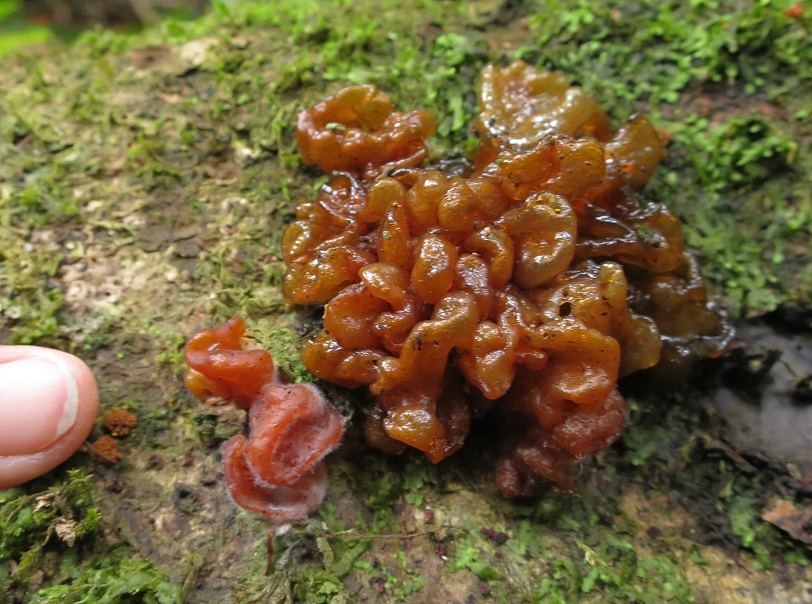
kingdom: Fungi
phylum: Basidiomycota
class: Tremellomycetes
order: Tremellales
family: Tremellaceae
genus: Tremella
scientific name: Tremella vesiculosa
